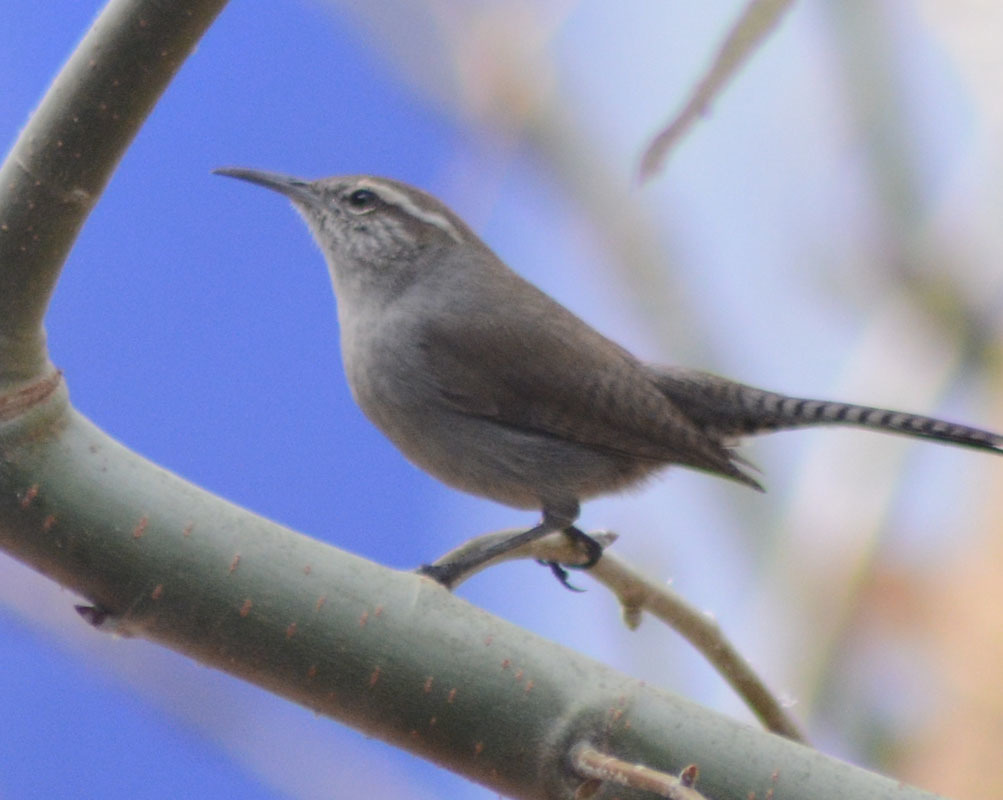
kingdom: Animalia
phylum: Chordata
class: Aves
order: Passeriformes
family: Troglodytidae
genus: Thryomanes
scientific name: Thryomanes bewickii
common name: Bewick's wren
